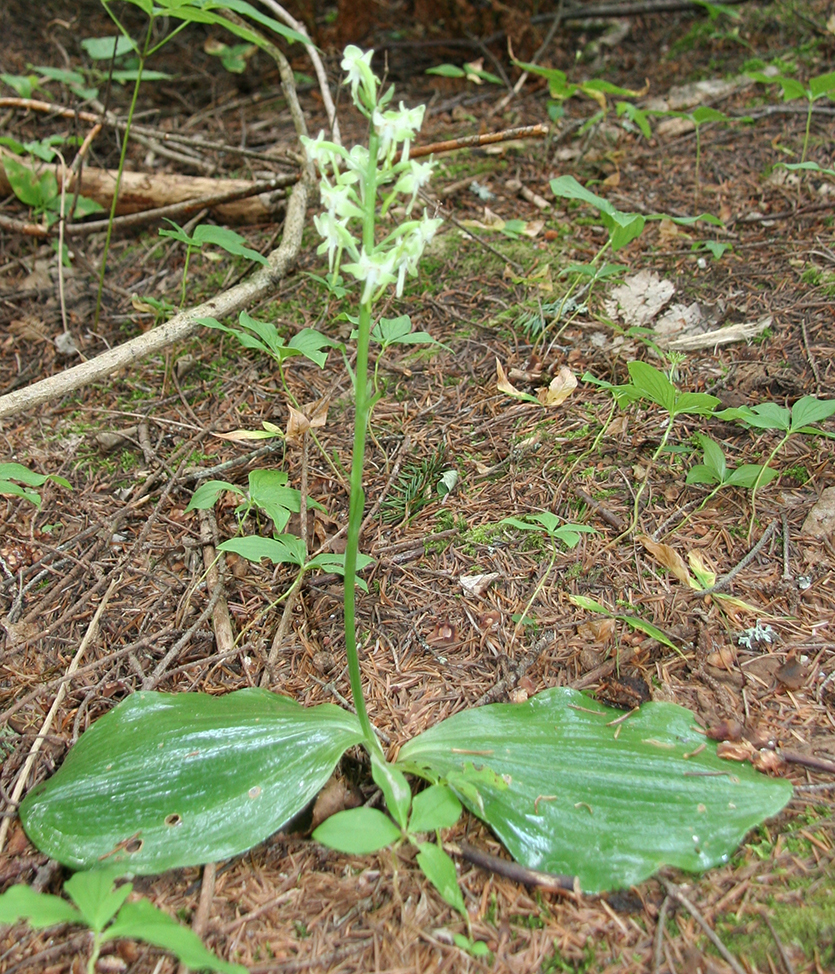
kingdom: Plantae
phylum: Tracheophyta
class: Liliopsida
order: Asparagales
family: Orchidaceae
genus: Platanthera
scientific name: Platanthera orbiculata
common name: Large round-leaved orchid
